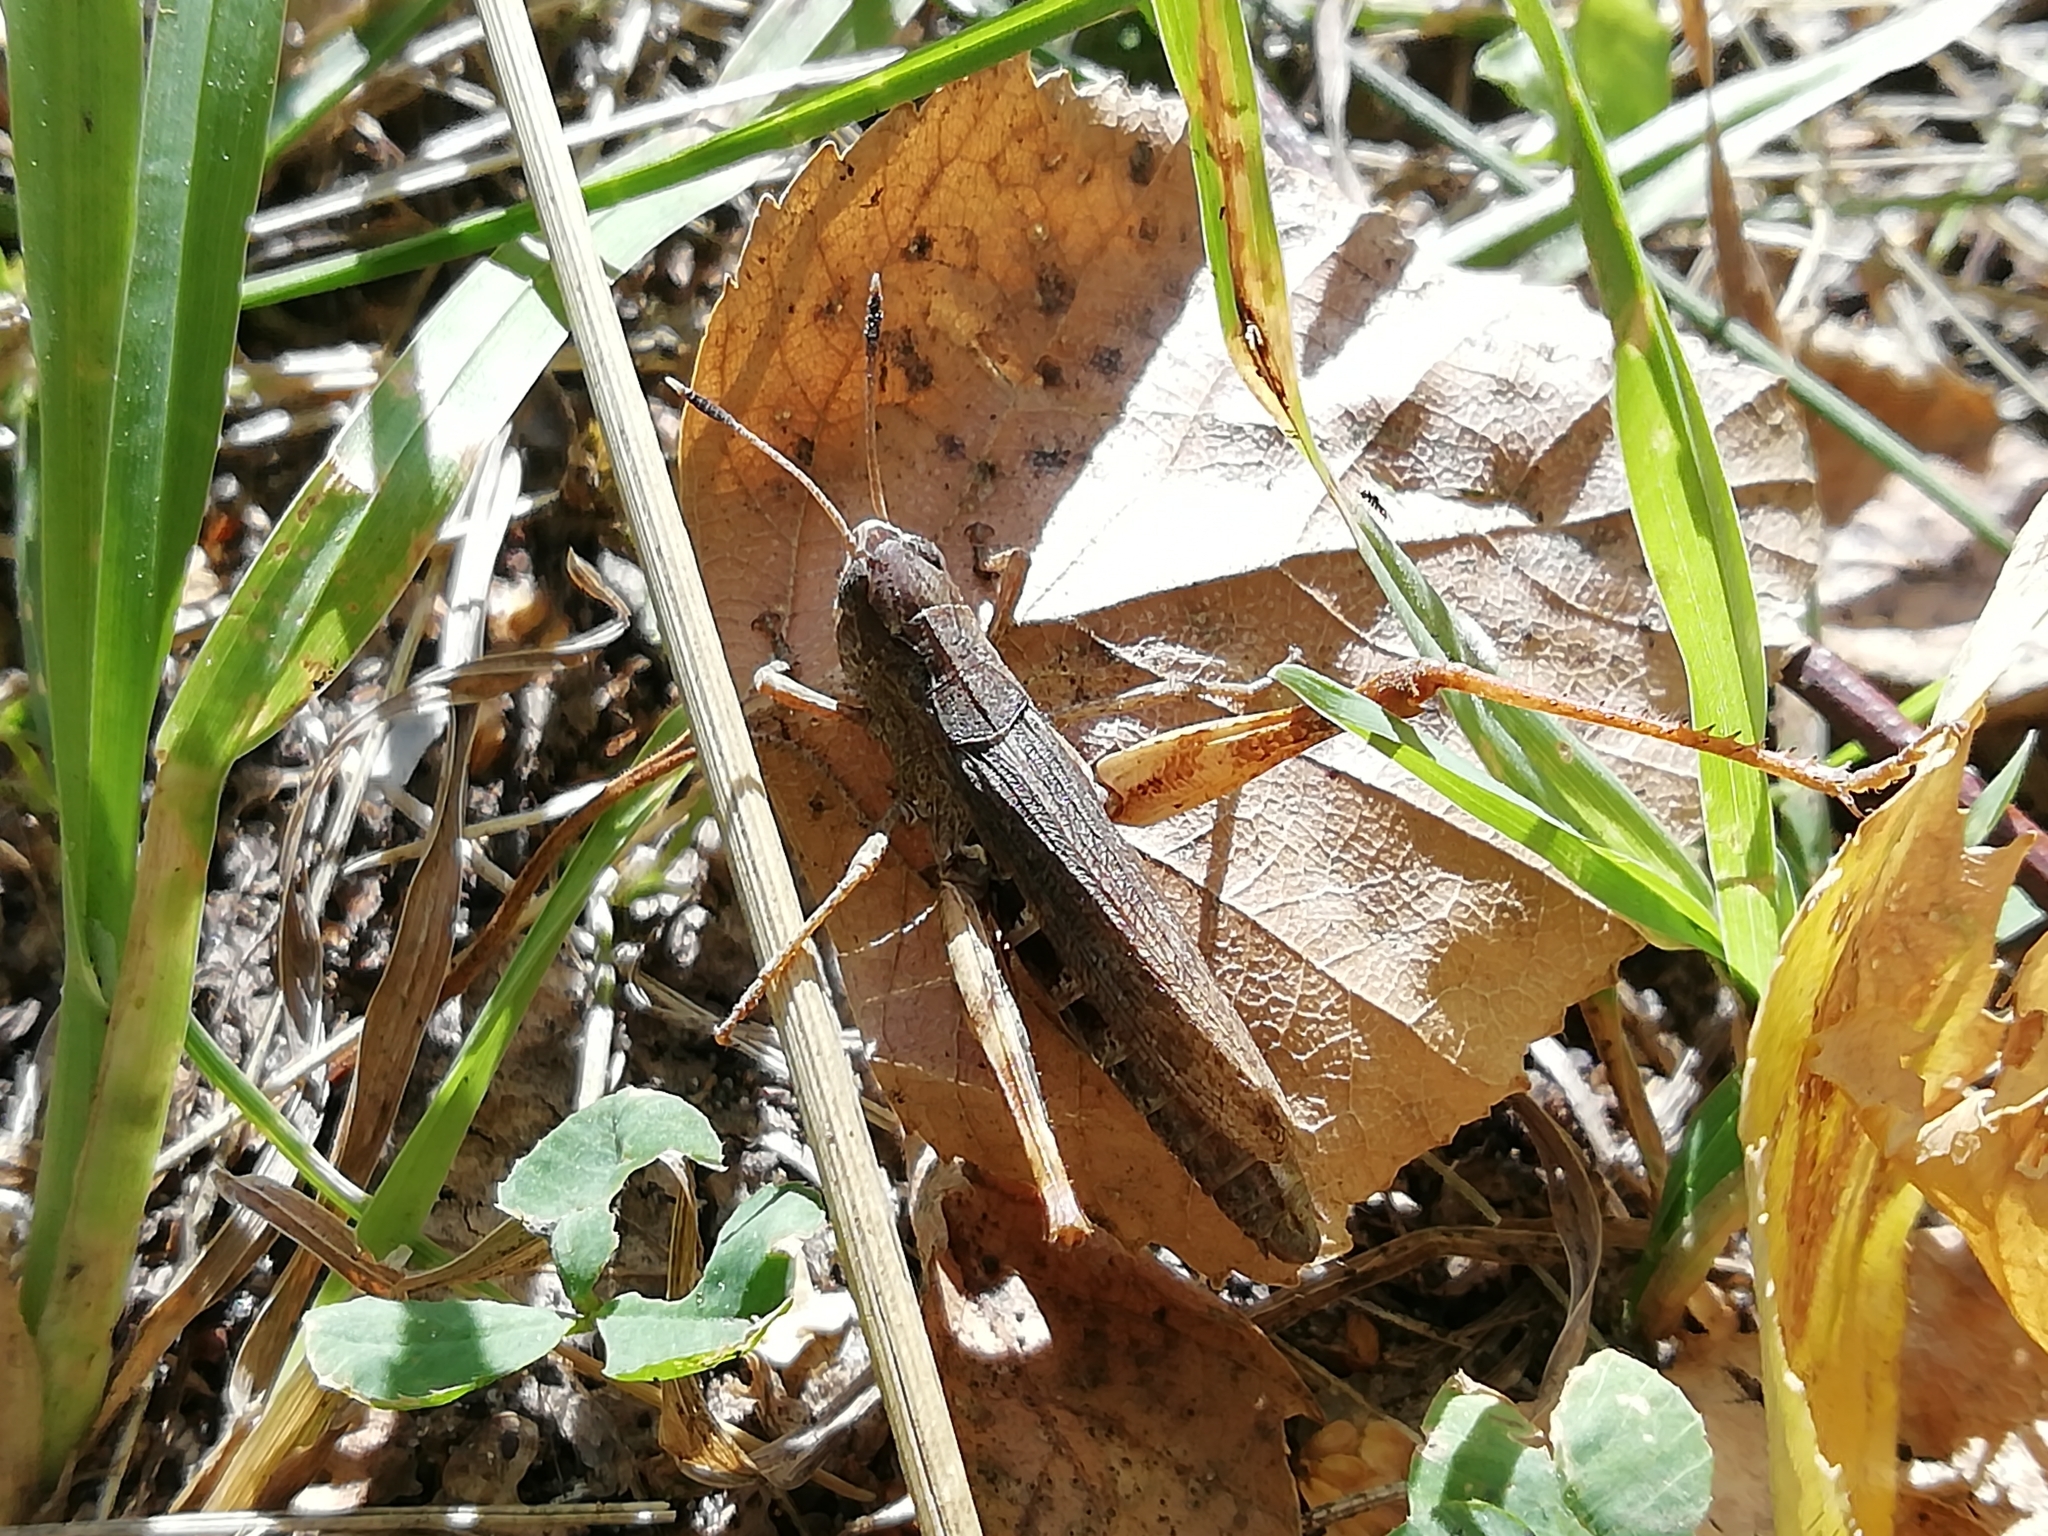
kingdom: Animalia
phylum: Arthropoda
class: Insecta
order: Orthoptera
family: Acrididae
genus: Gomphocerippus
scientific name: Gomphocerippus rufus
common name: Rufous grasshopper
